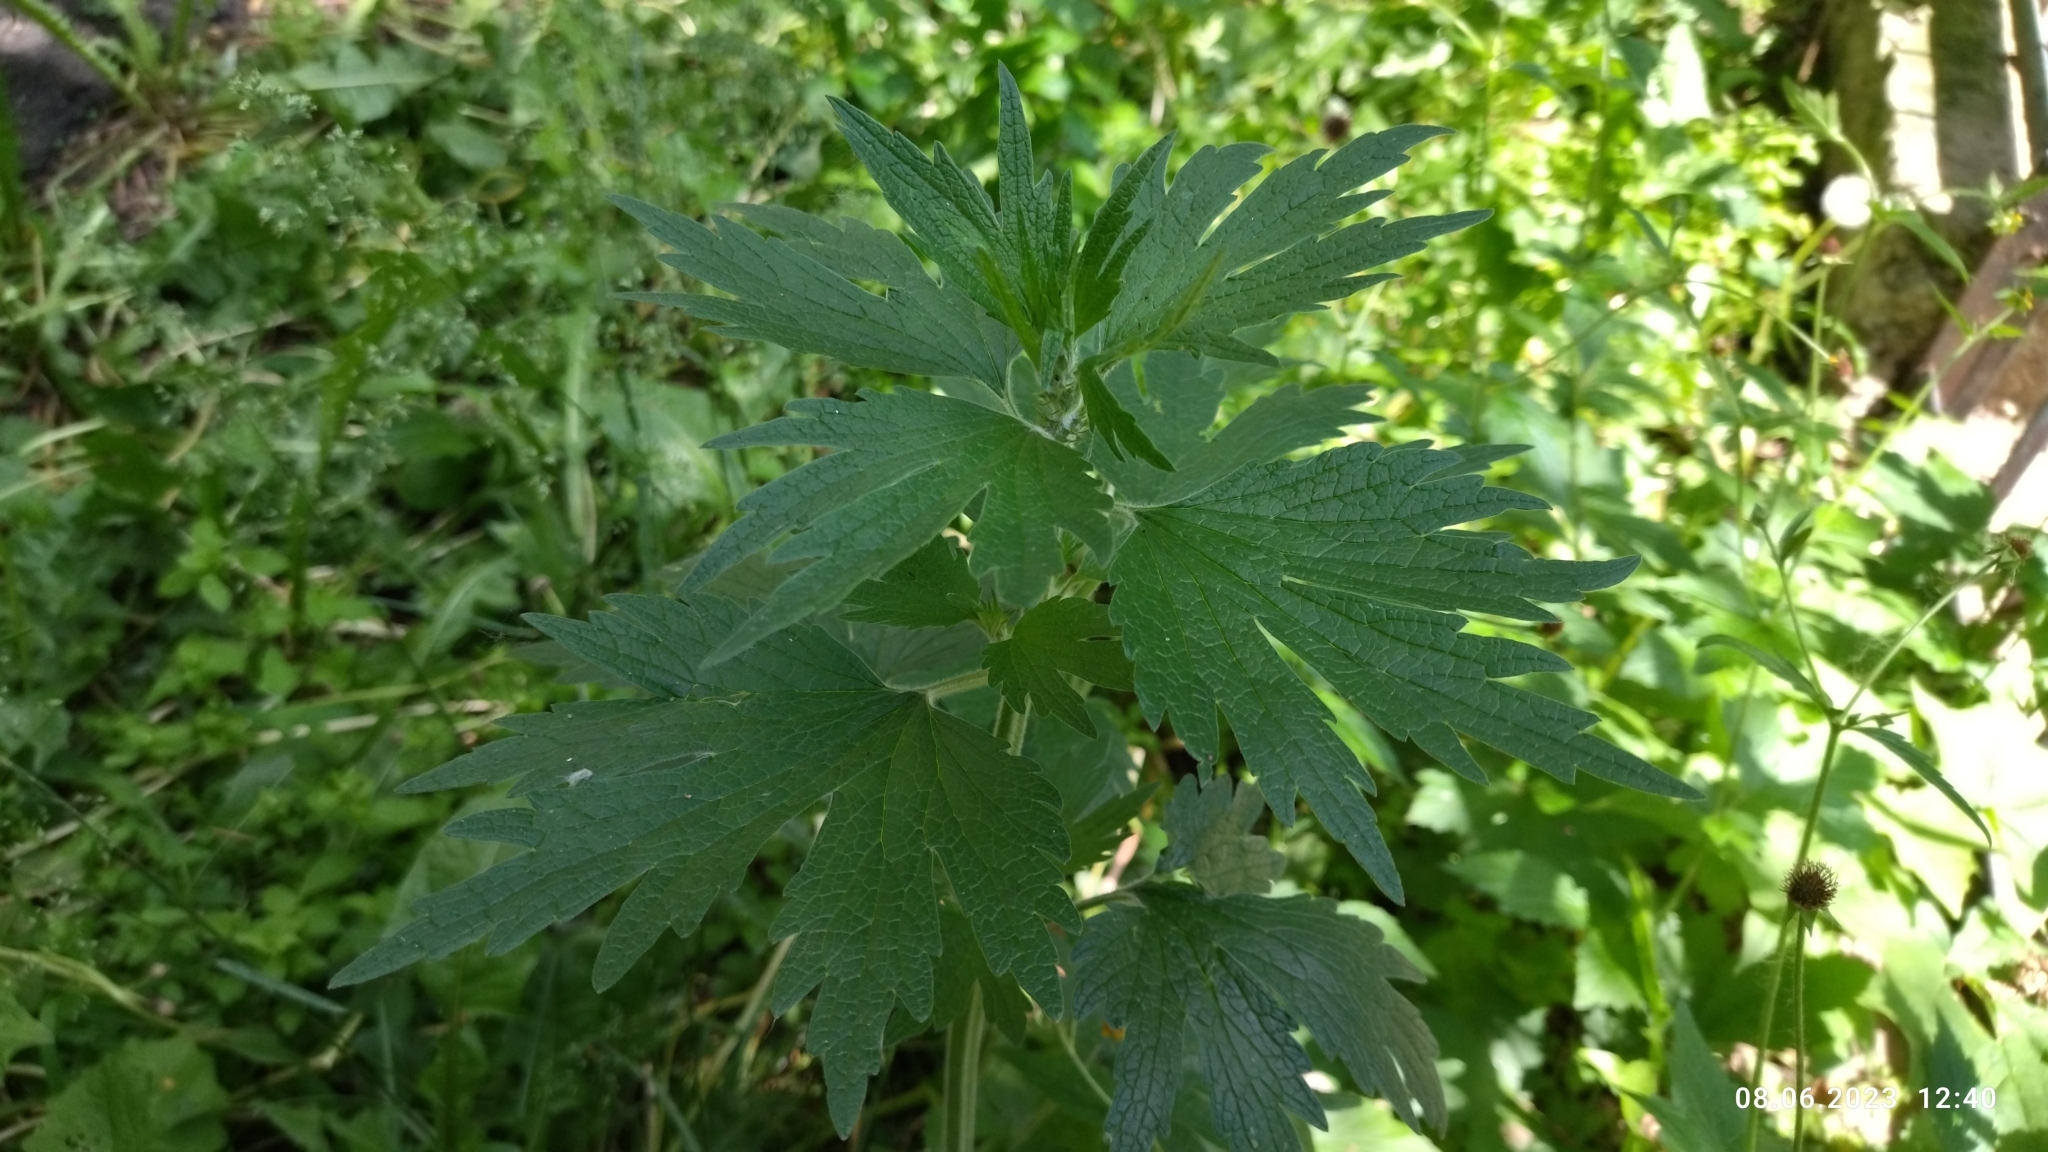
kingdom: Plantae
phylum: Tracheophyta
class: Magnoliopsida
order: Lamiales
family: Lamiaceae
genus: Leonurus
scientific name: Leonurus quinquelobatus
